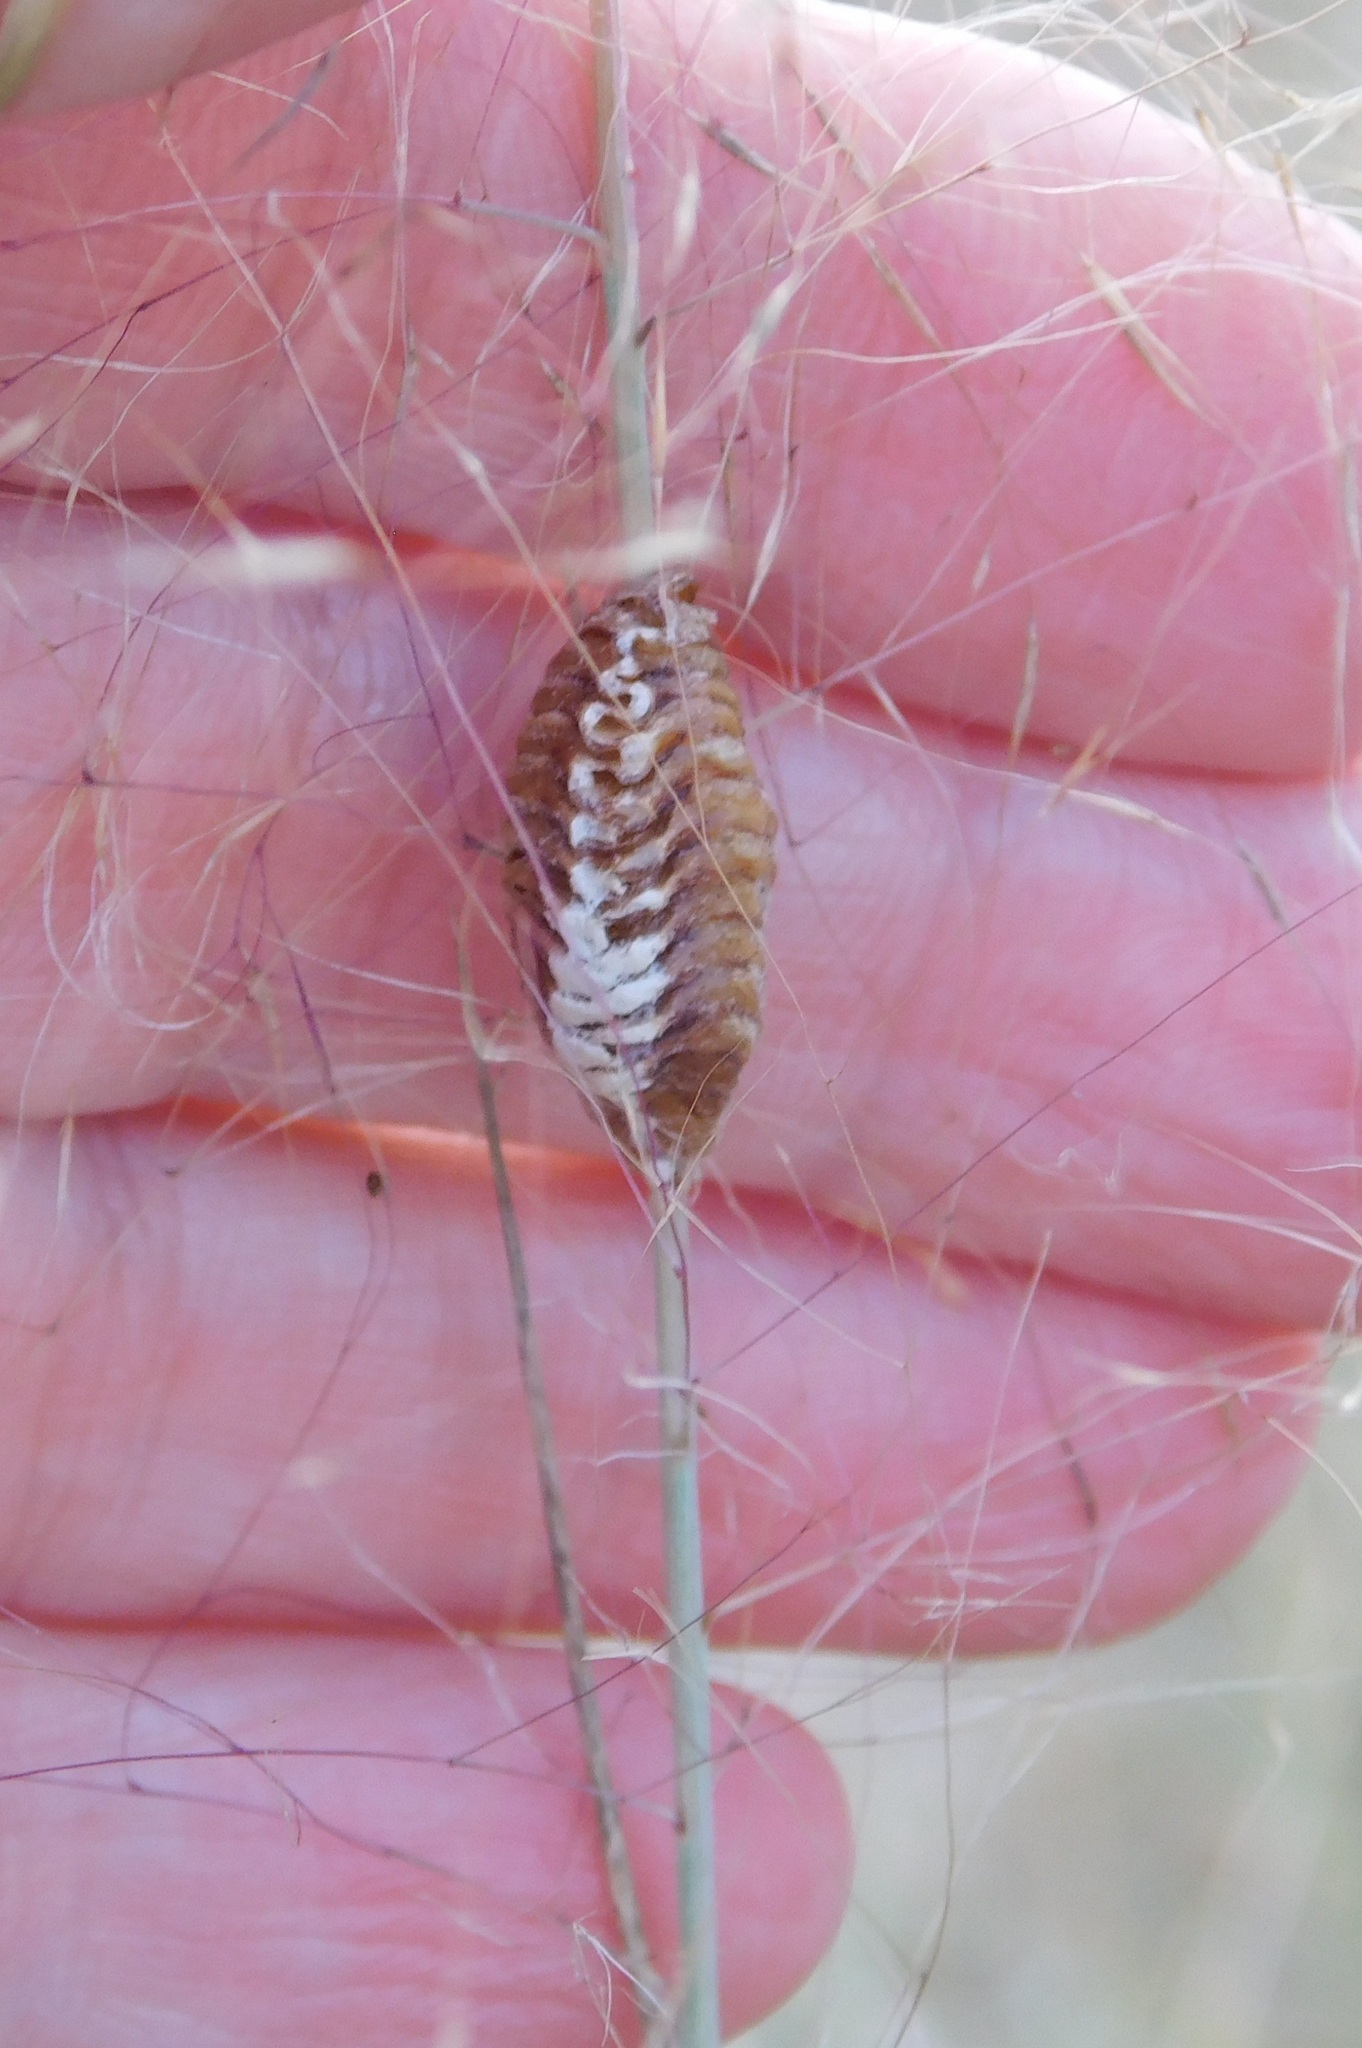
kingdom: Animalia
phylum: Arthropoda
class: Insecta
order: Mantodea
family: Mantidae
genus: Stagmomantis
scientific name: Stagmomantis carolina
